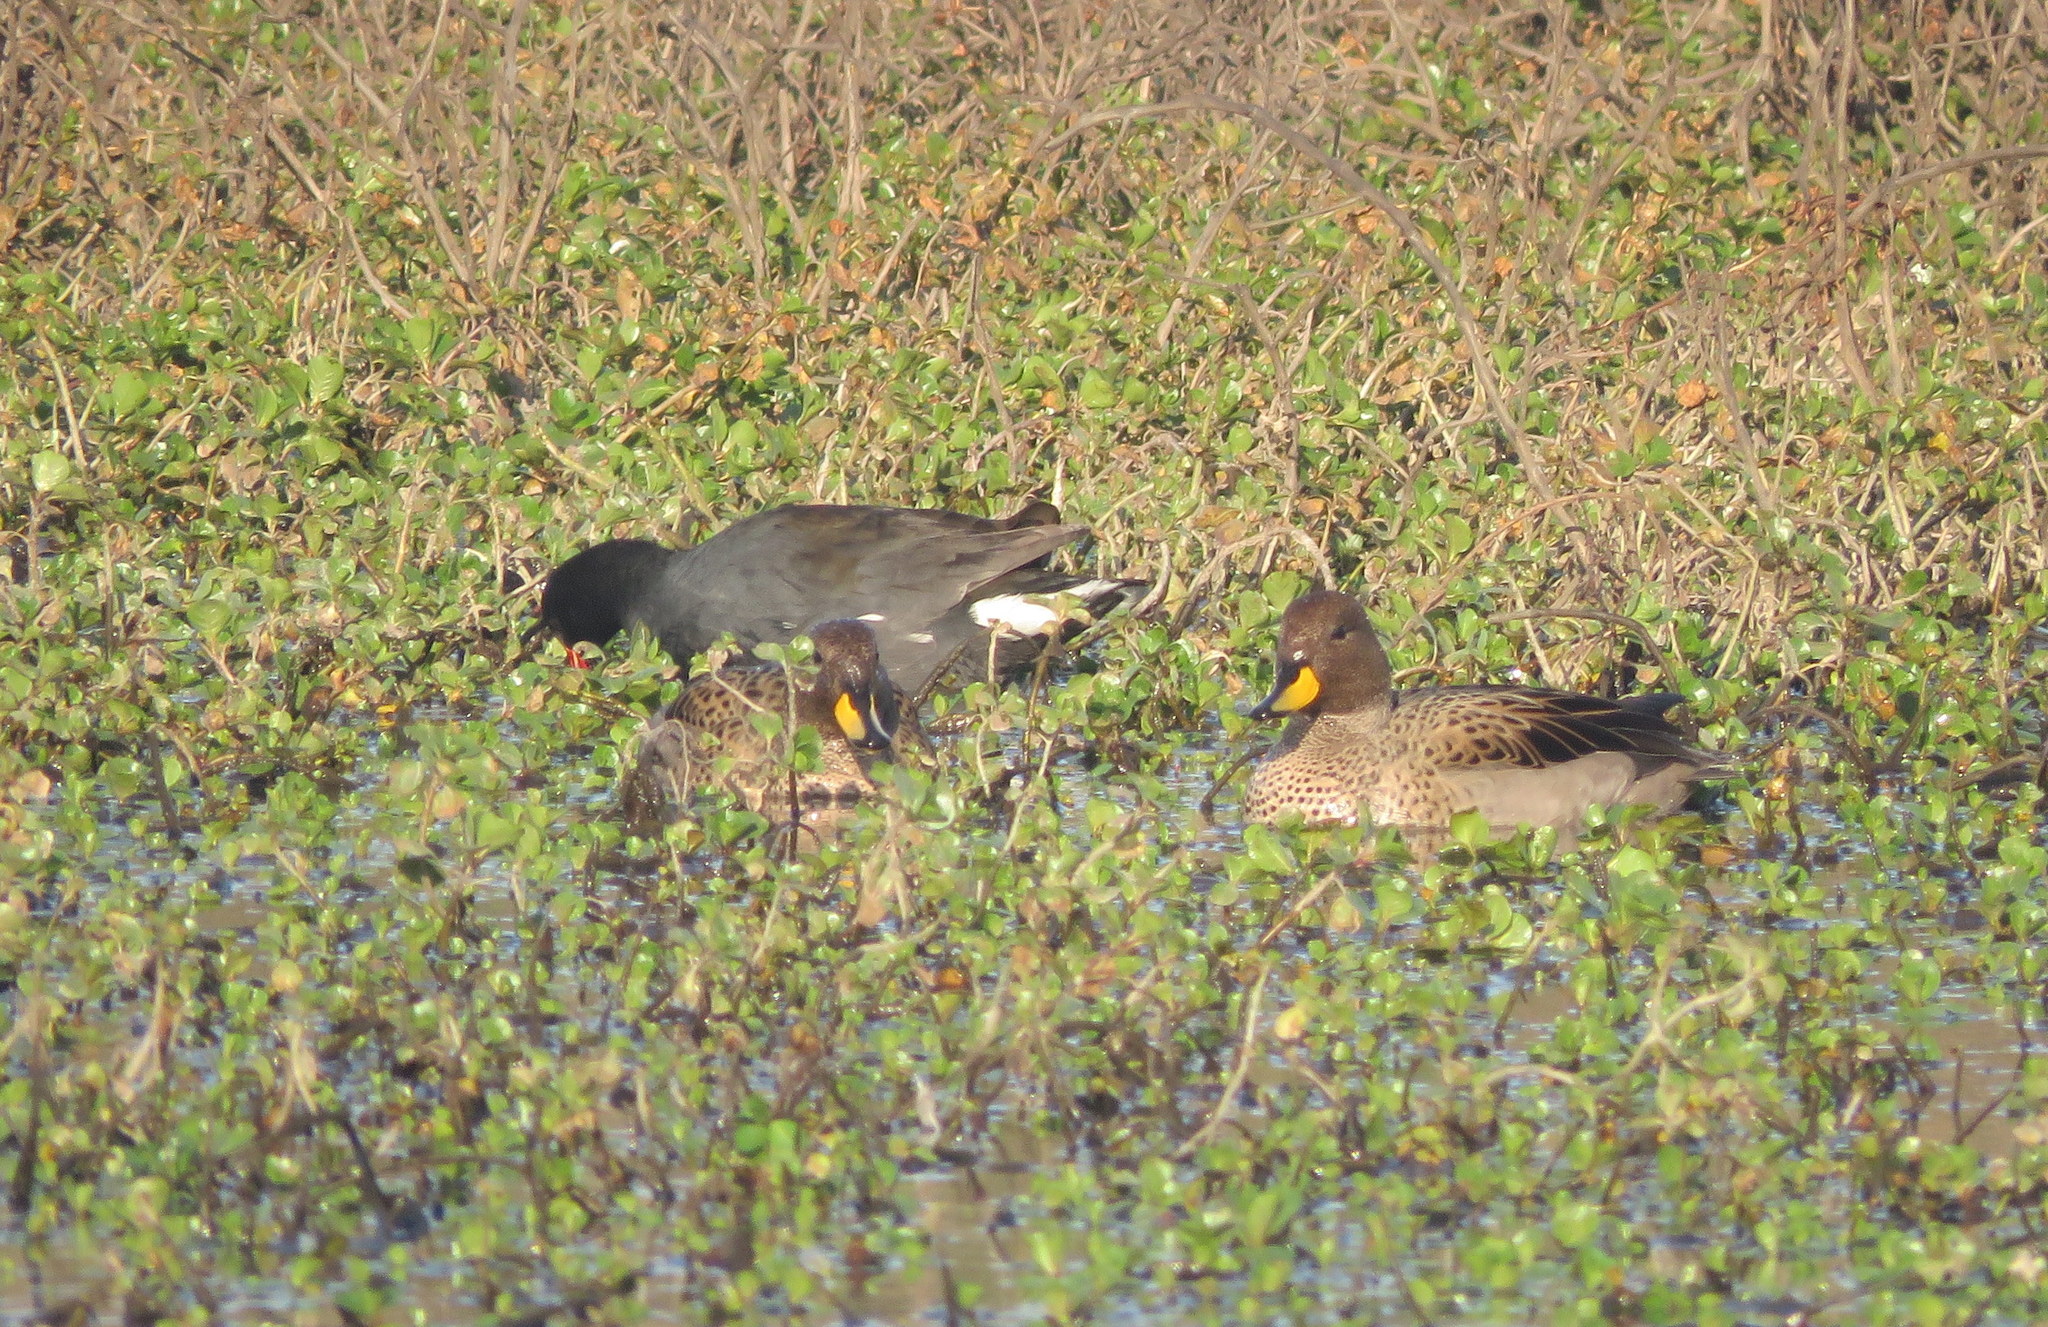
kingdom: Animalia
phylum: Chordata
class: Aves
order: Anseriformes
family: Anatidae
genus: Anas
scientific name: Anas flavirostris
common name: Yellow-billed teal
